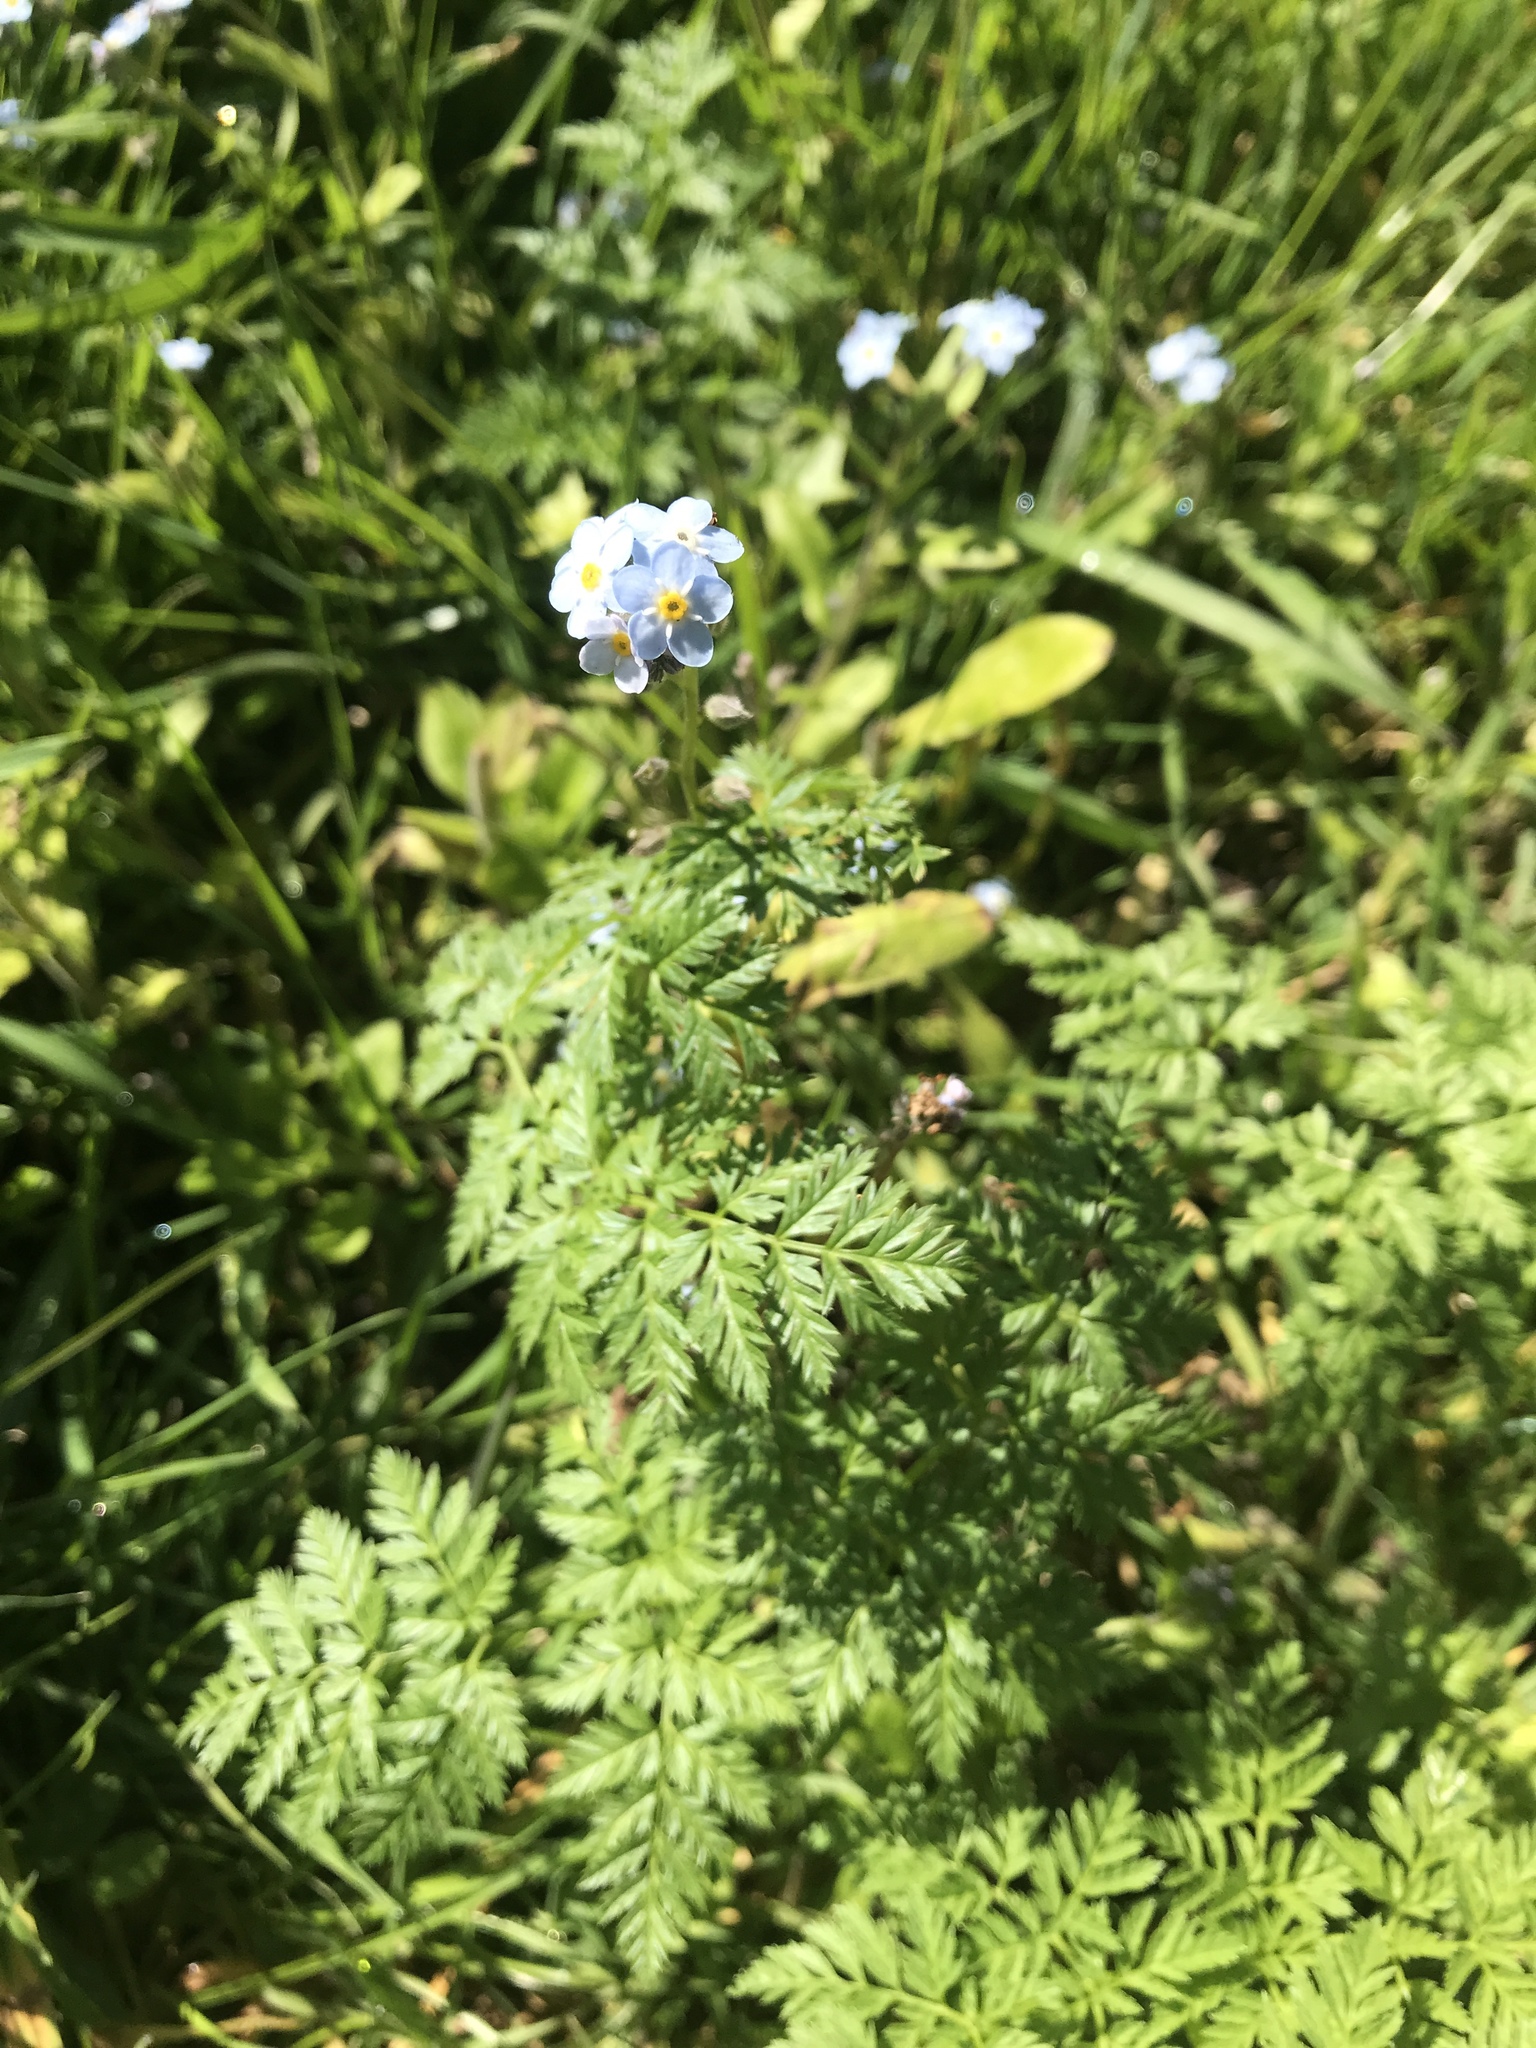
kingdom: Plantae
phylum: Tracheophyta
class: Magnoliopsida
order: Boraginales
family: Boraginaceae
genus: Myosotis
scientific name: Myosotis latifolia
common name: Broadleaf forget-me-not
